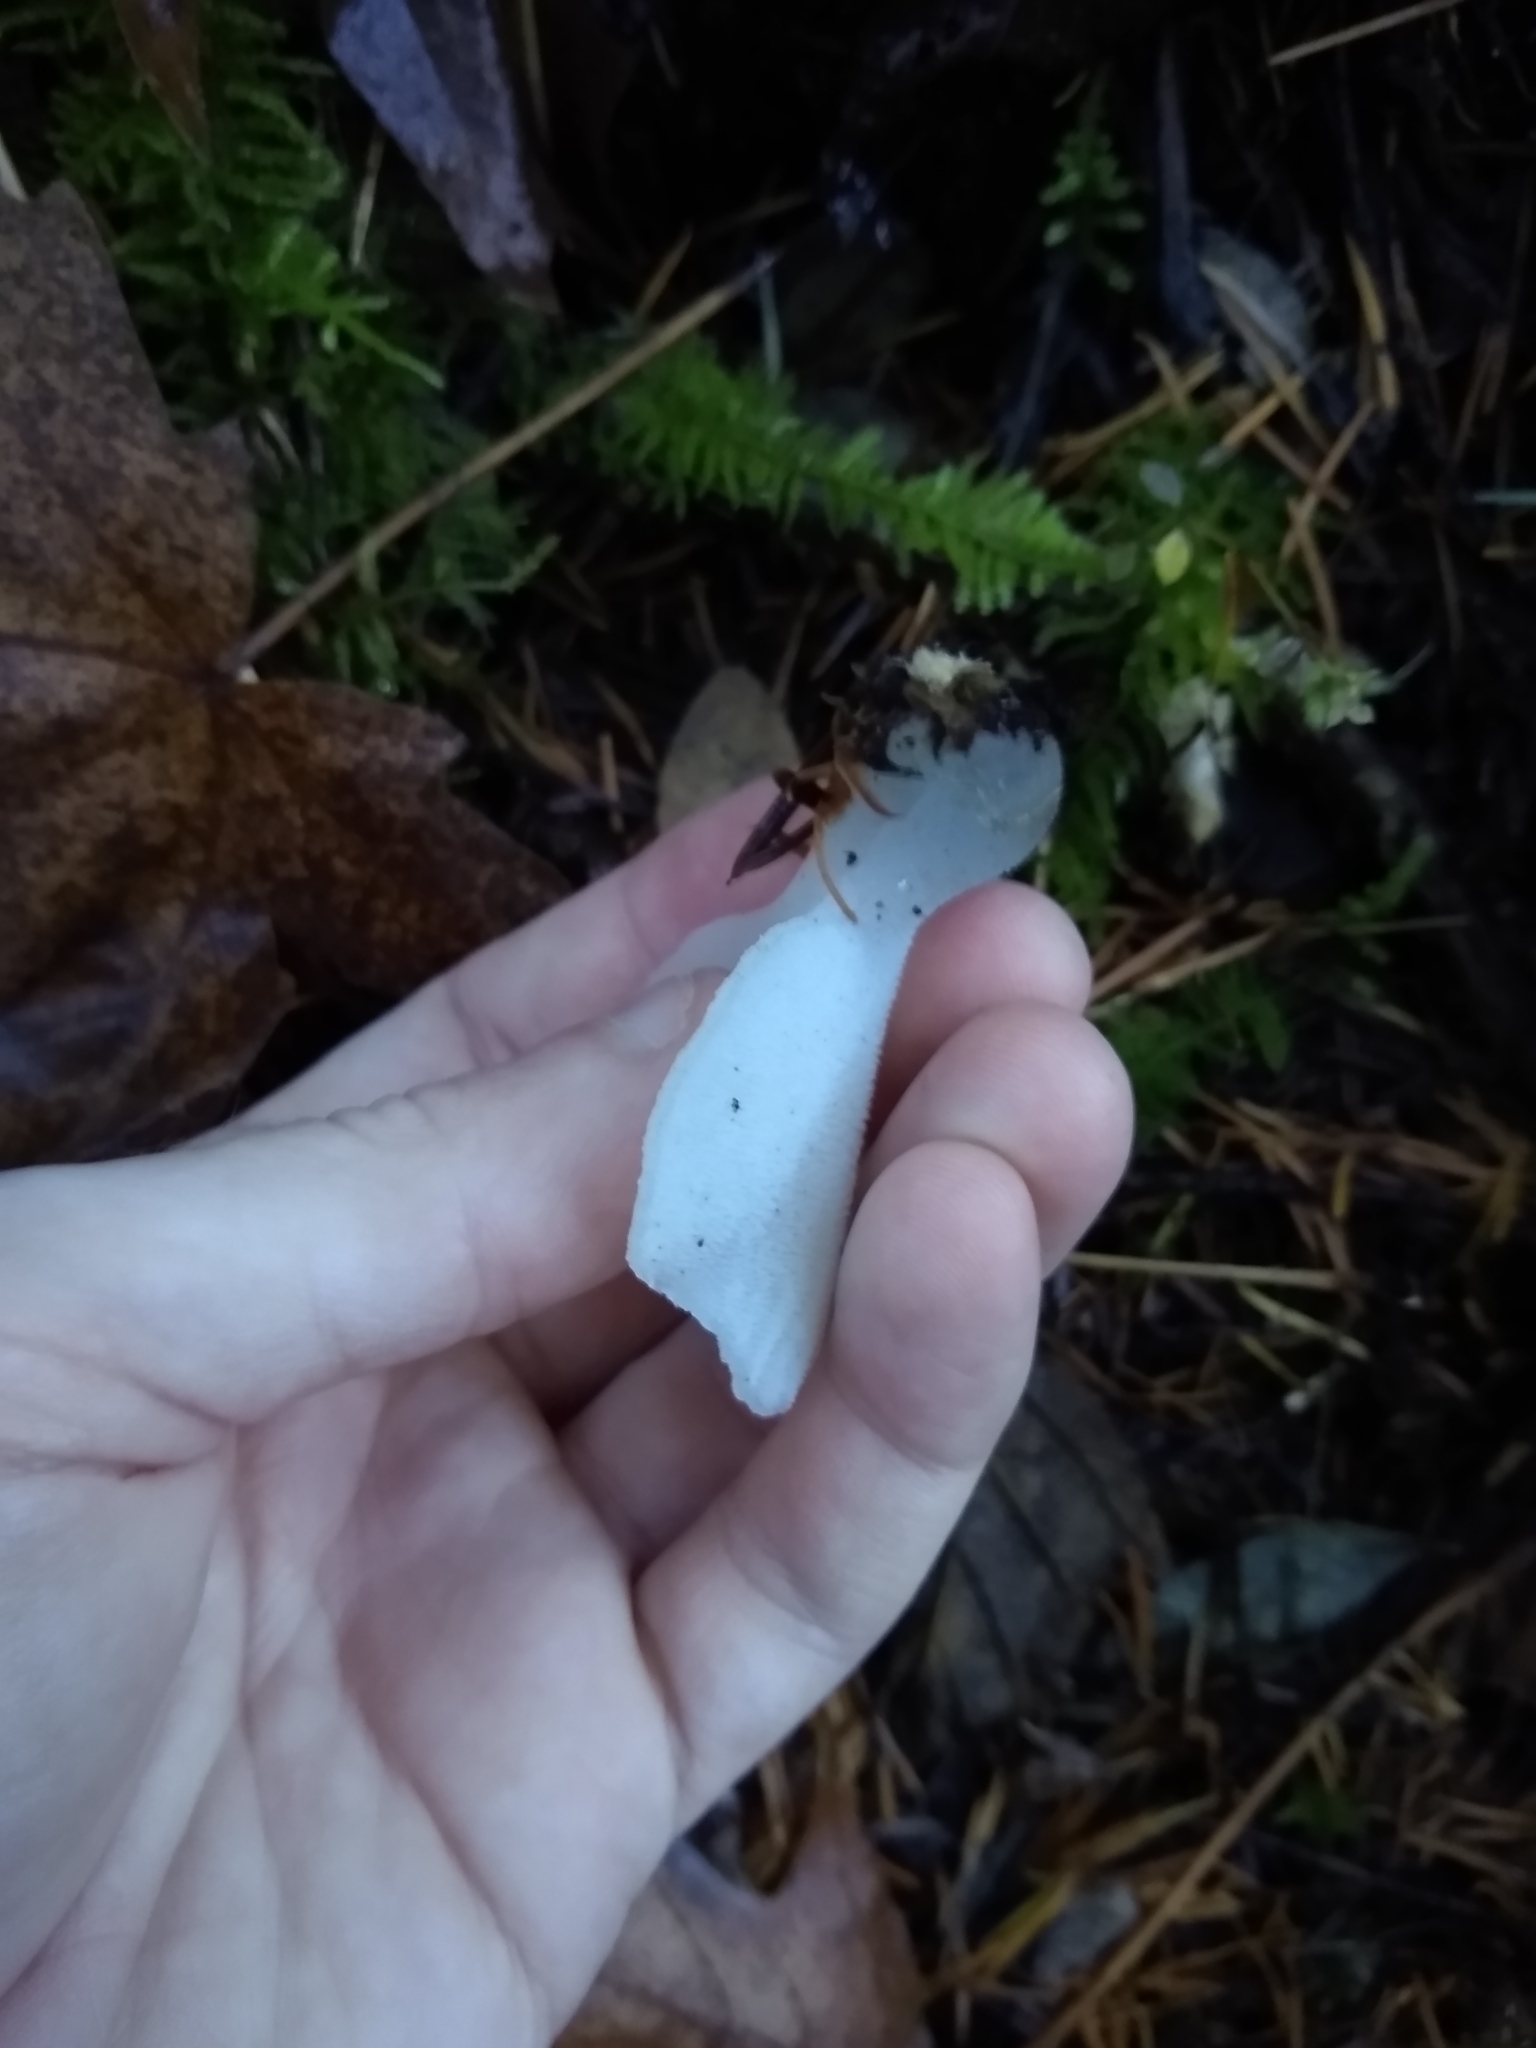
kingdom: Fungi
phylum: Basidiomycota
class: Agaricomycetes
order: Auriculariales
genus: Pseudohydnum
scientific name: Pseudohydnum gelatinosum
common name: Jelly tongue
